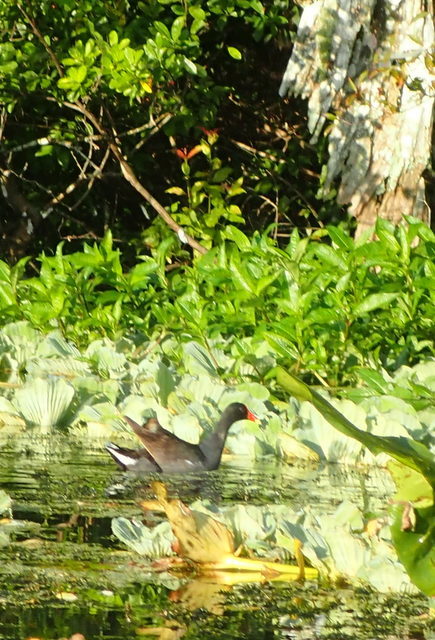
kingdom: Animalia
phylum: Chordata
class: Aves
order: Gruiformes
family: Rallidae
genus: Gallinula
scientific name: Gallinula chloropus
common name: Common moorhen
